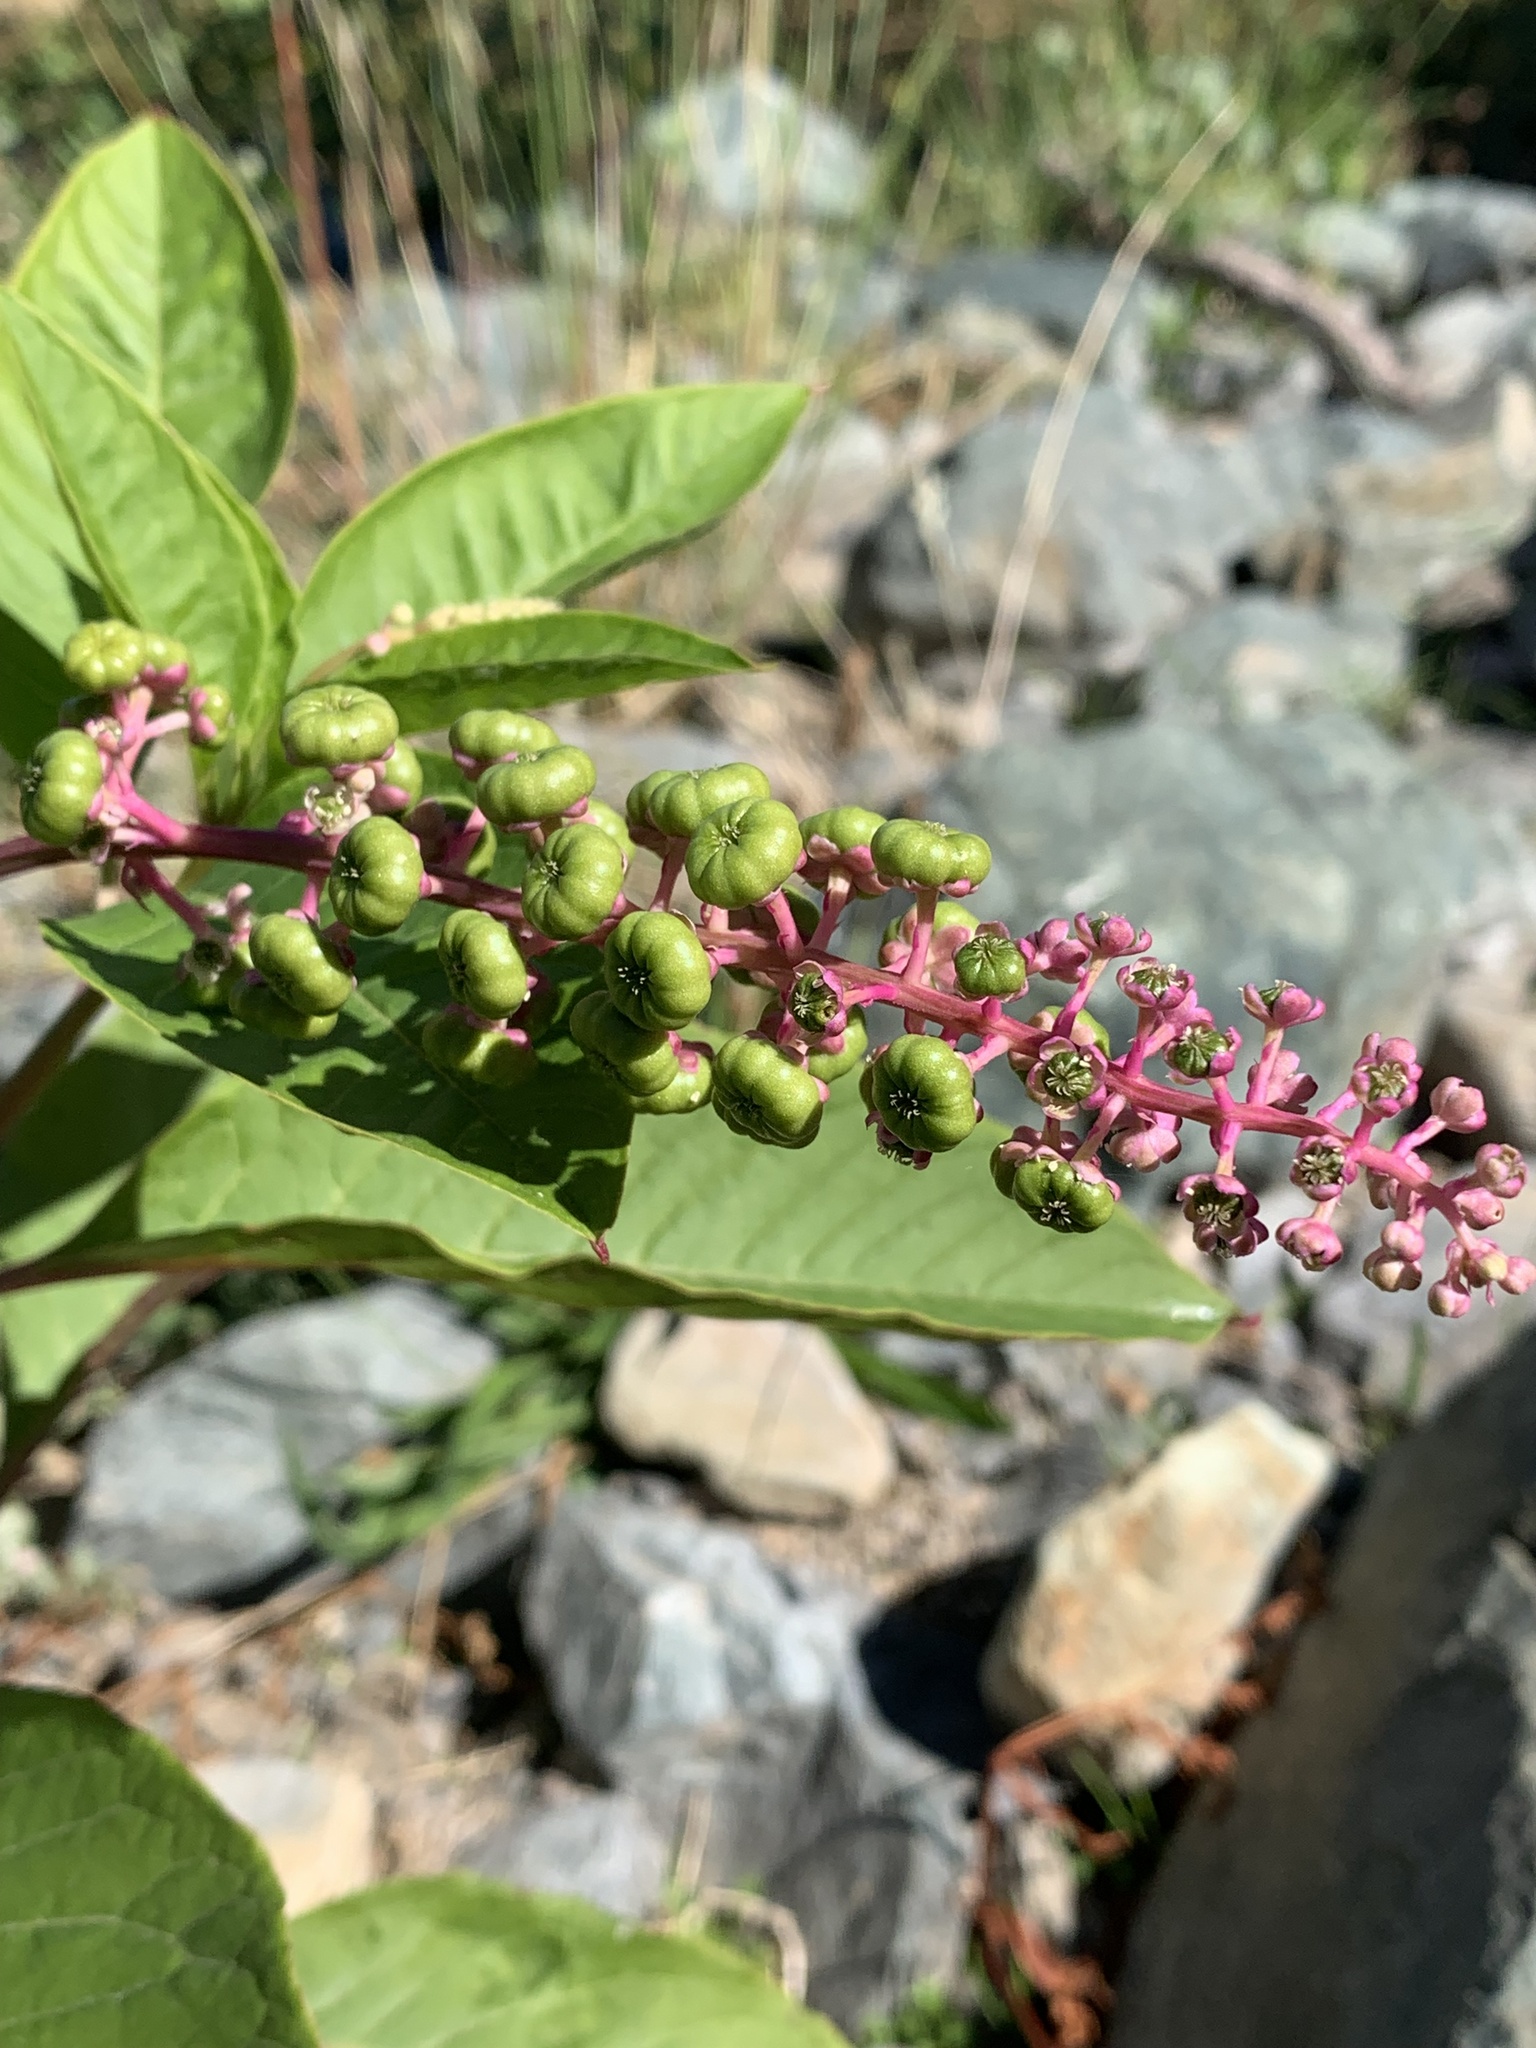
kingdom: Plantae
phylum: Tracheophyta
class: Magnoliopsida
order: Caryophyllales
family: Phytolaccaceae
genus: Phytolacca
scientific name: Phytolacca americana
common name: American pokeweed
